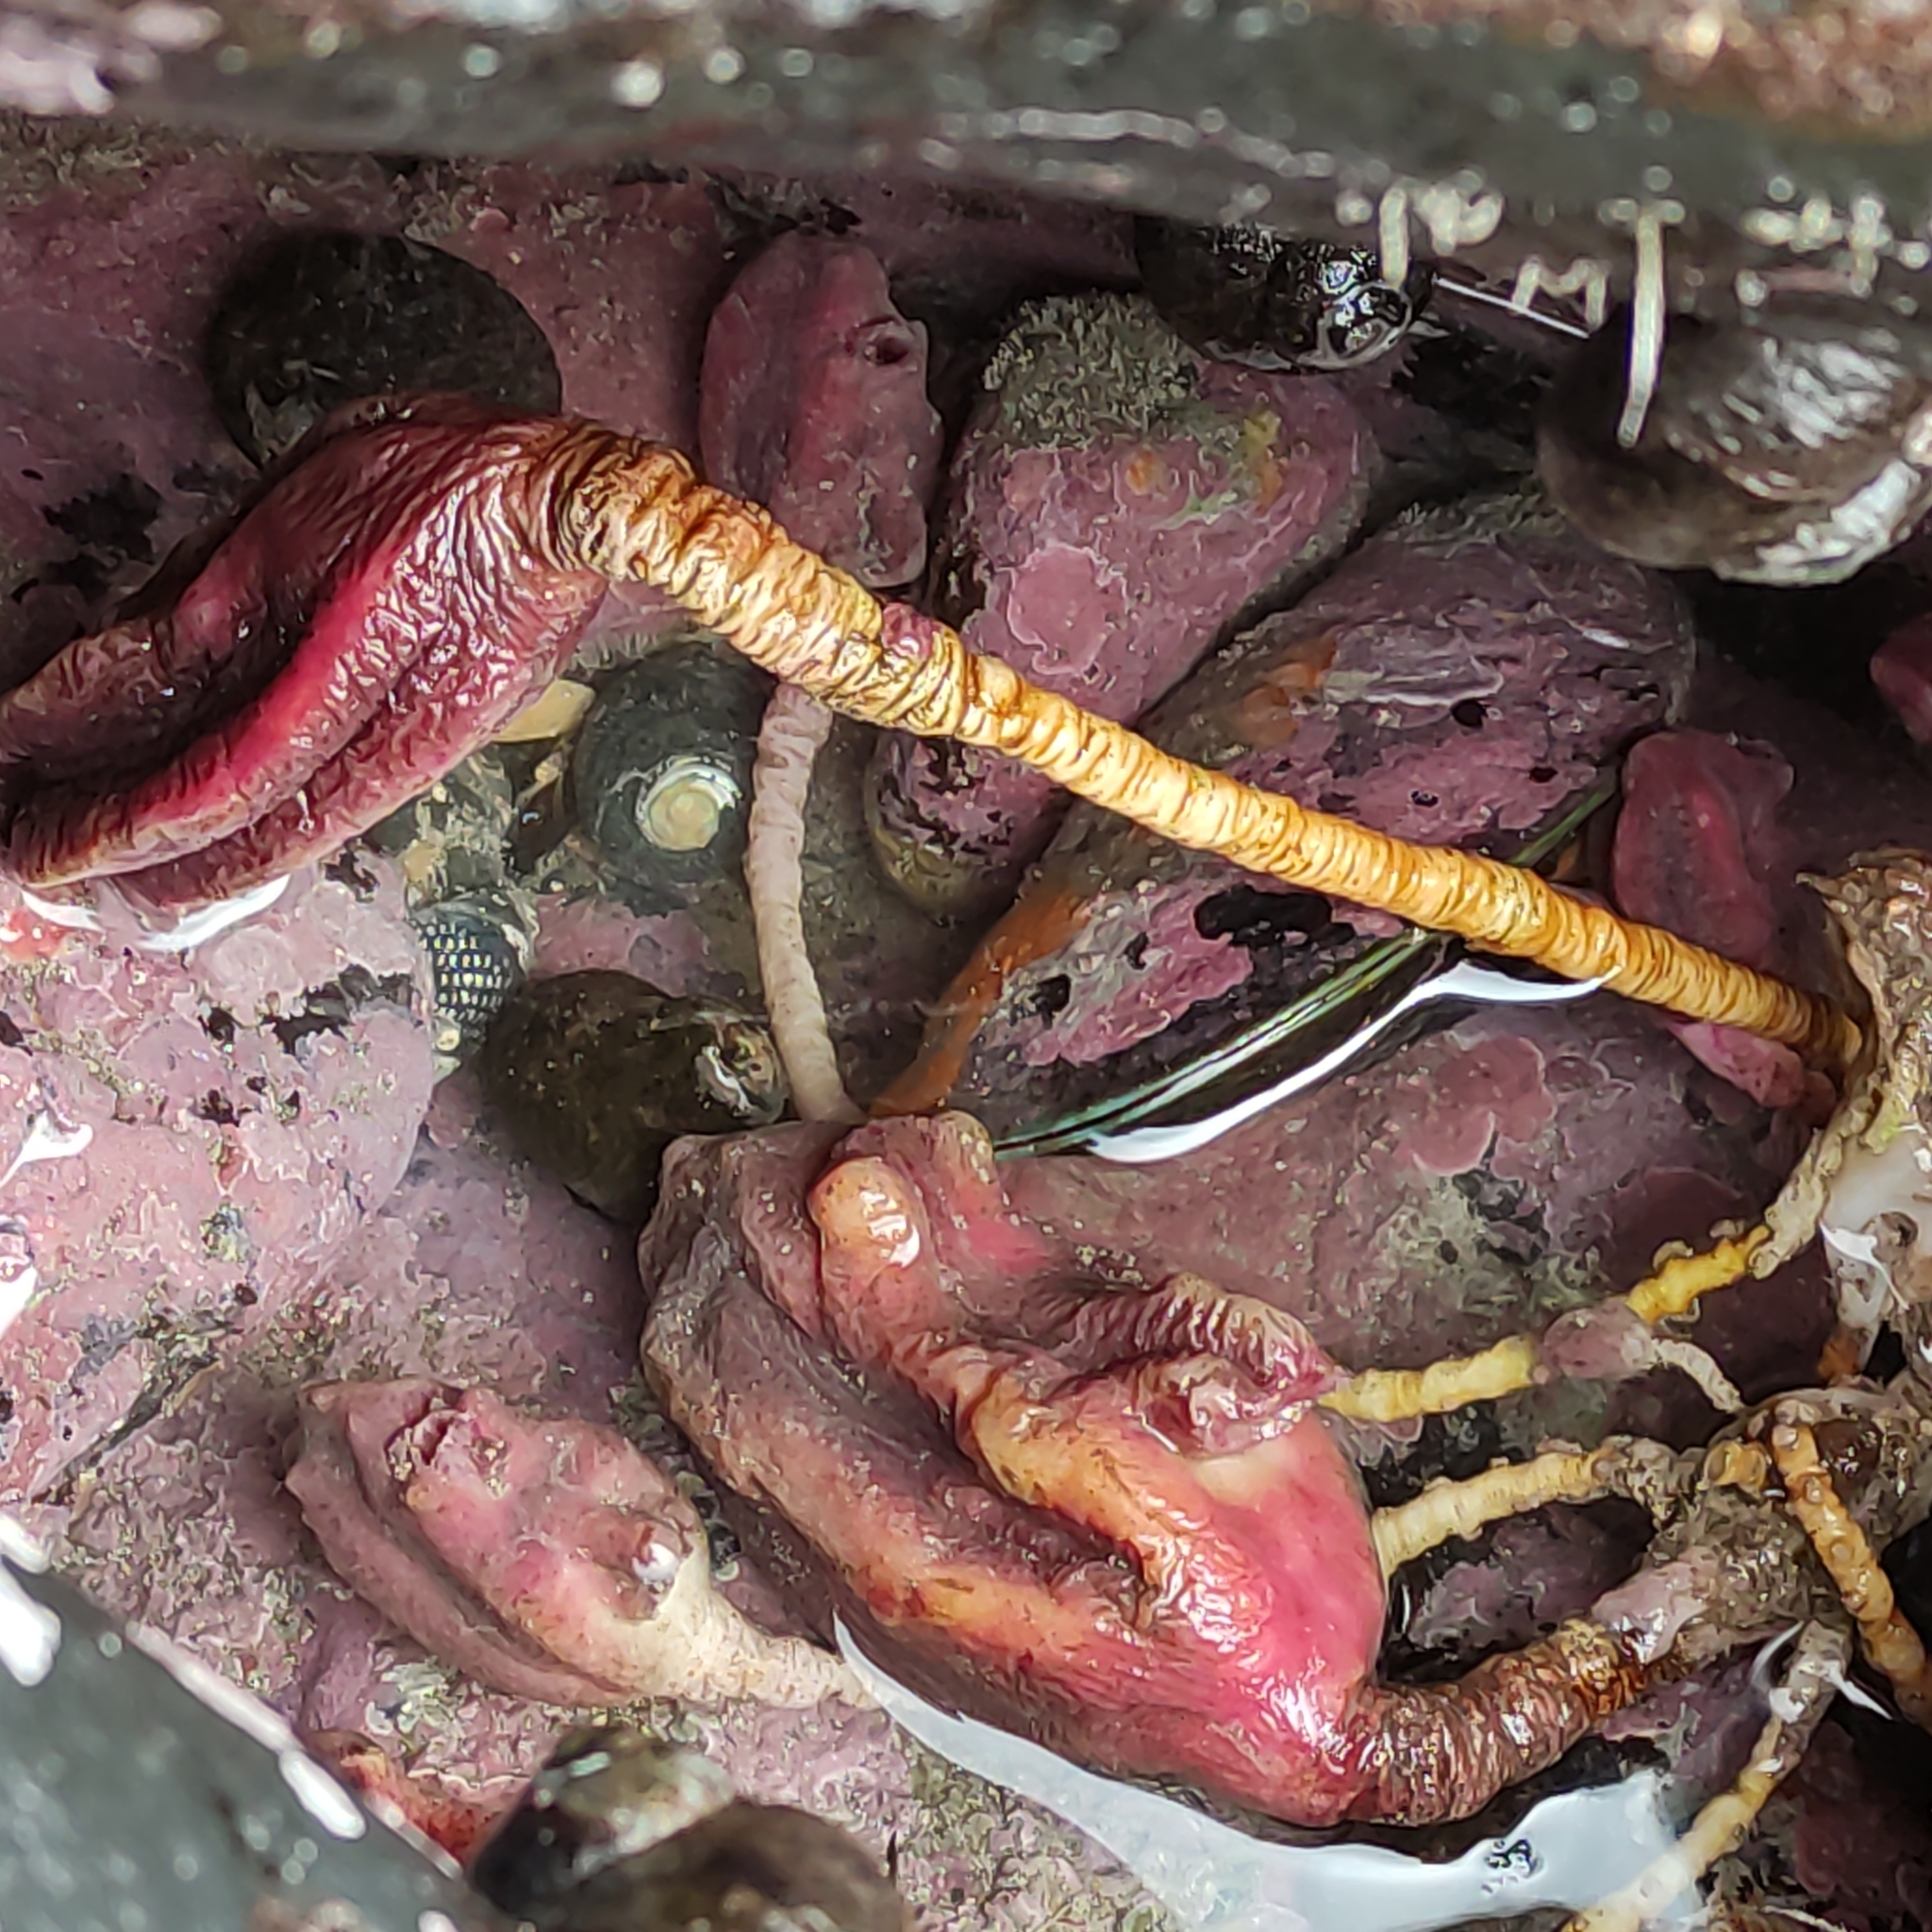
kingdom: Animalia
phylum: Chordata
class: Ascidiacea
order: Stolidobranchia
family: Pyuridae
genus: Pyura
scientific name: Pyura pachydermatina
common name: Sea tulip
